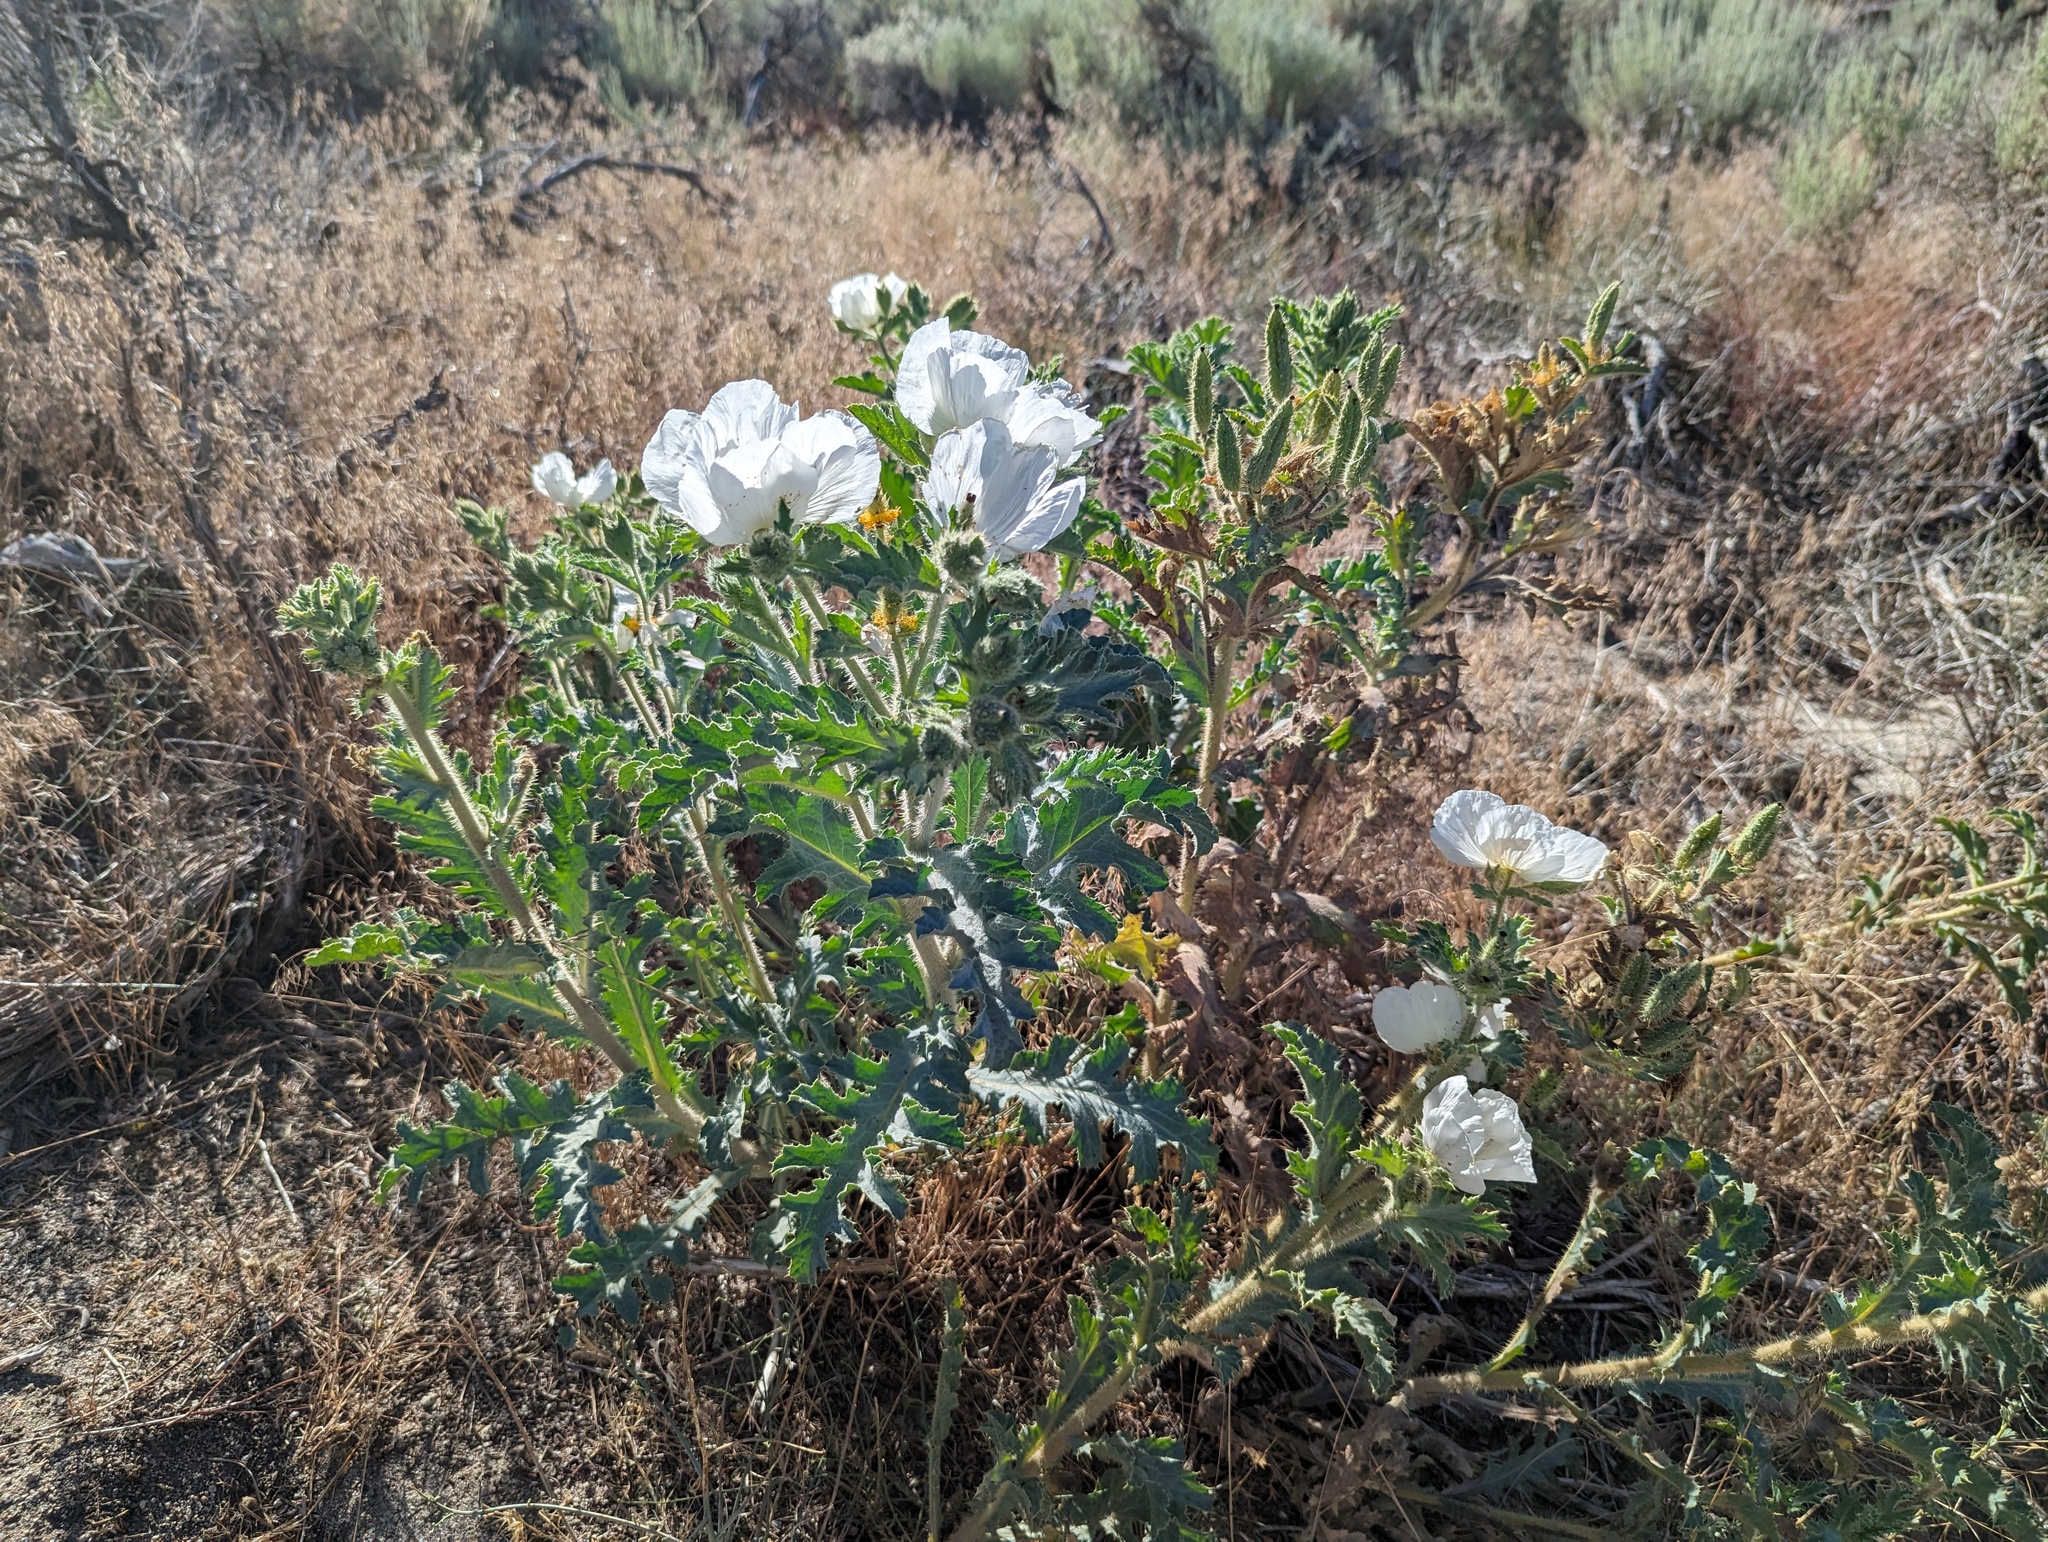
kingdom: Plantae
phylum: Tracheophyta
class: Magnoliopsida
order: Ranunculales
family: Papaveraceae
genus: Argemone
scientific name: Argemone munita
